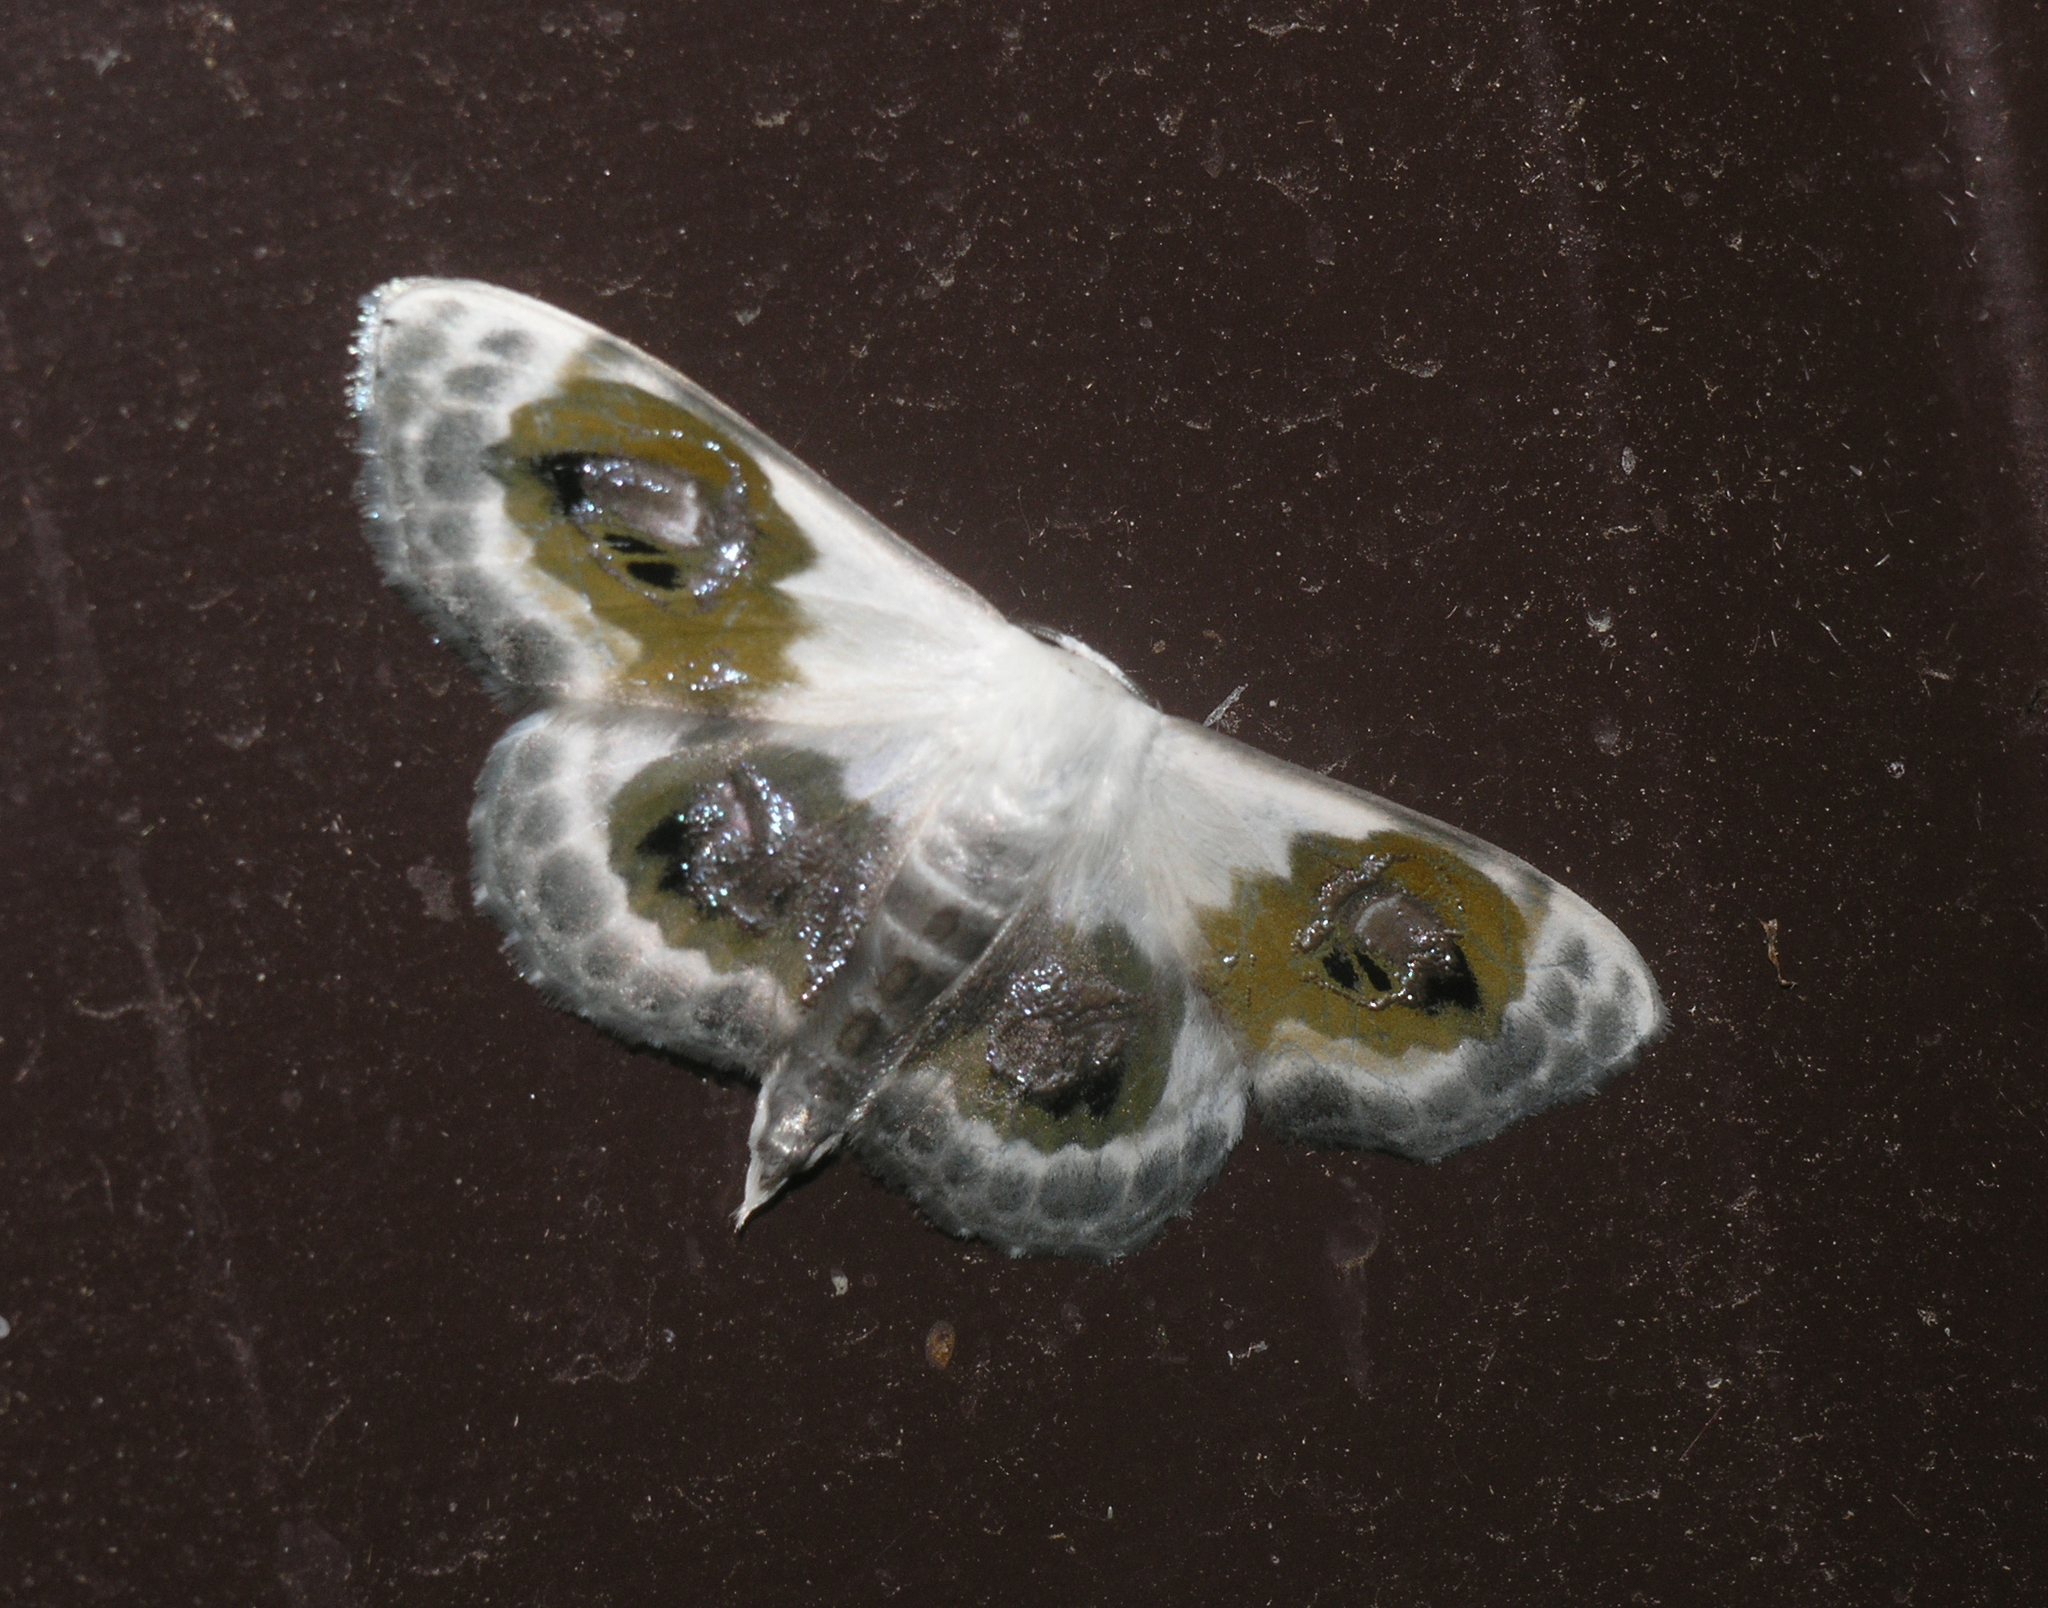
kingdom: Animalia
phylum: Arthropoda
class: Insecta
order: Lepidoptera
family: Geometridae
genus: Problepsis
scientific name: Problepsis phoebearia
